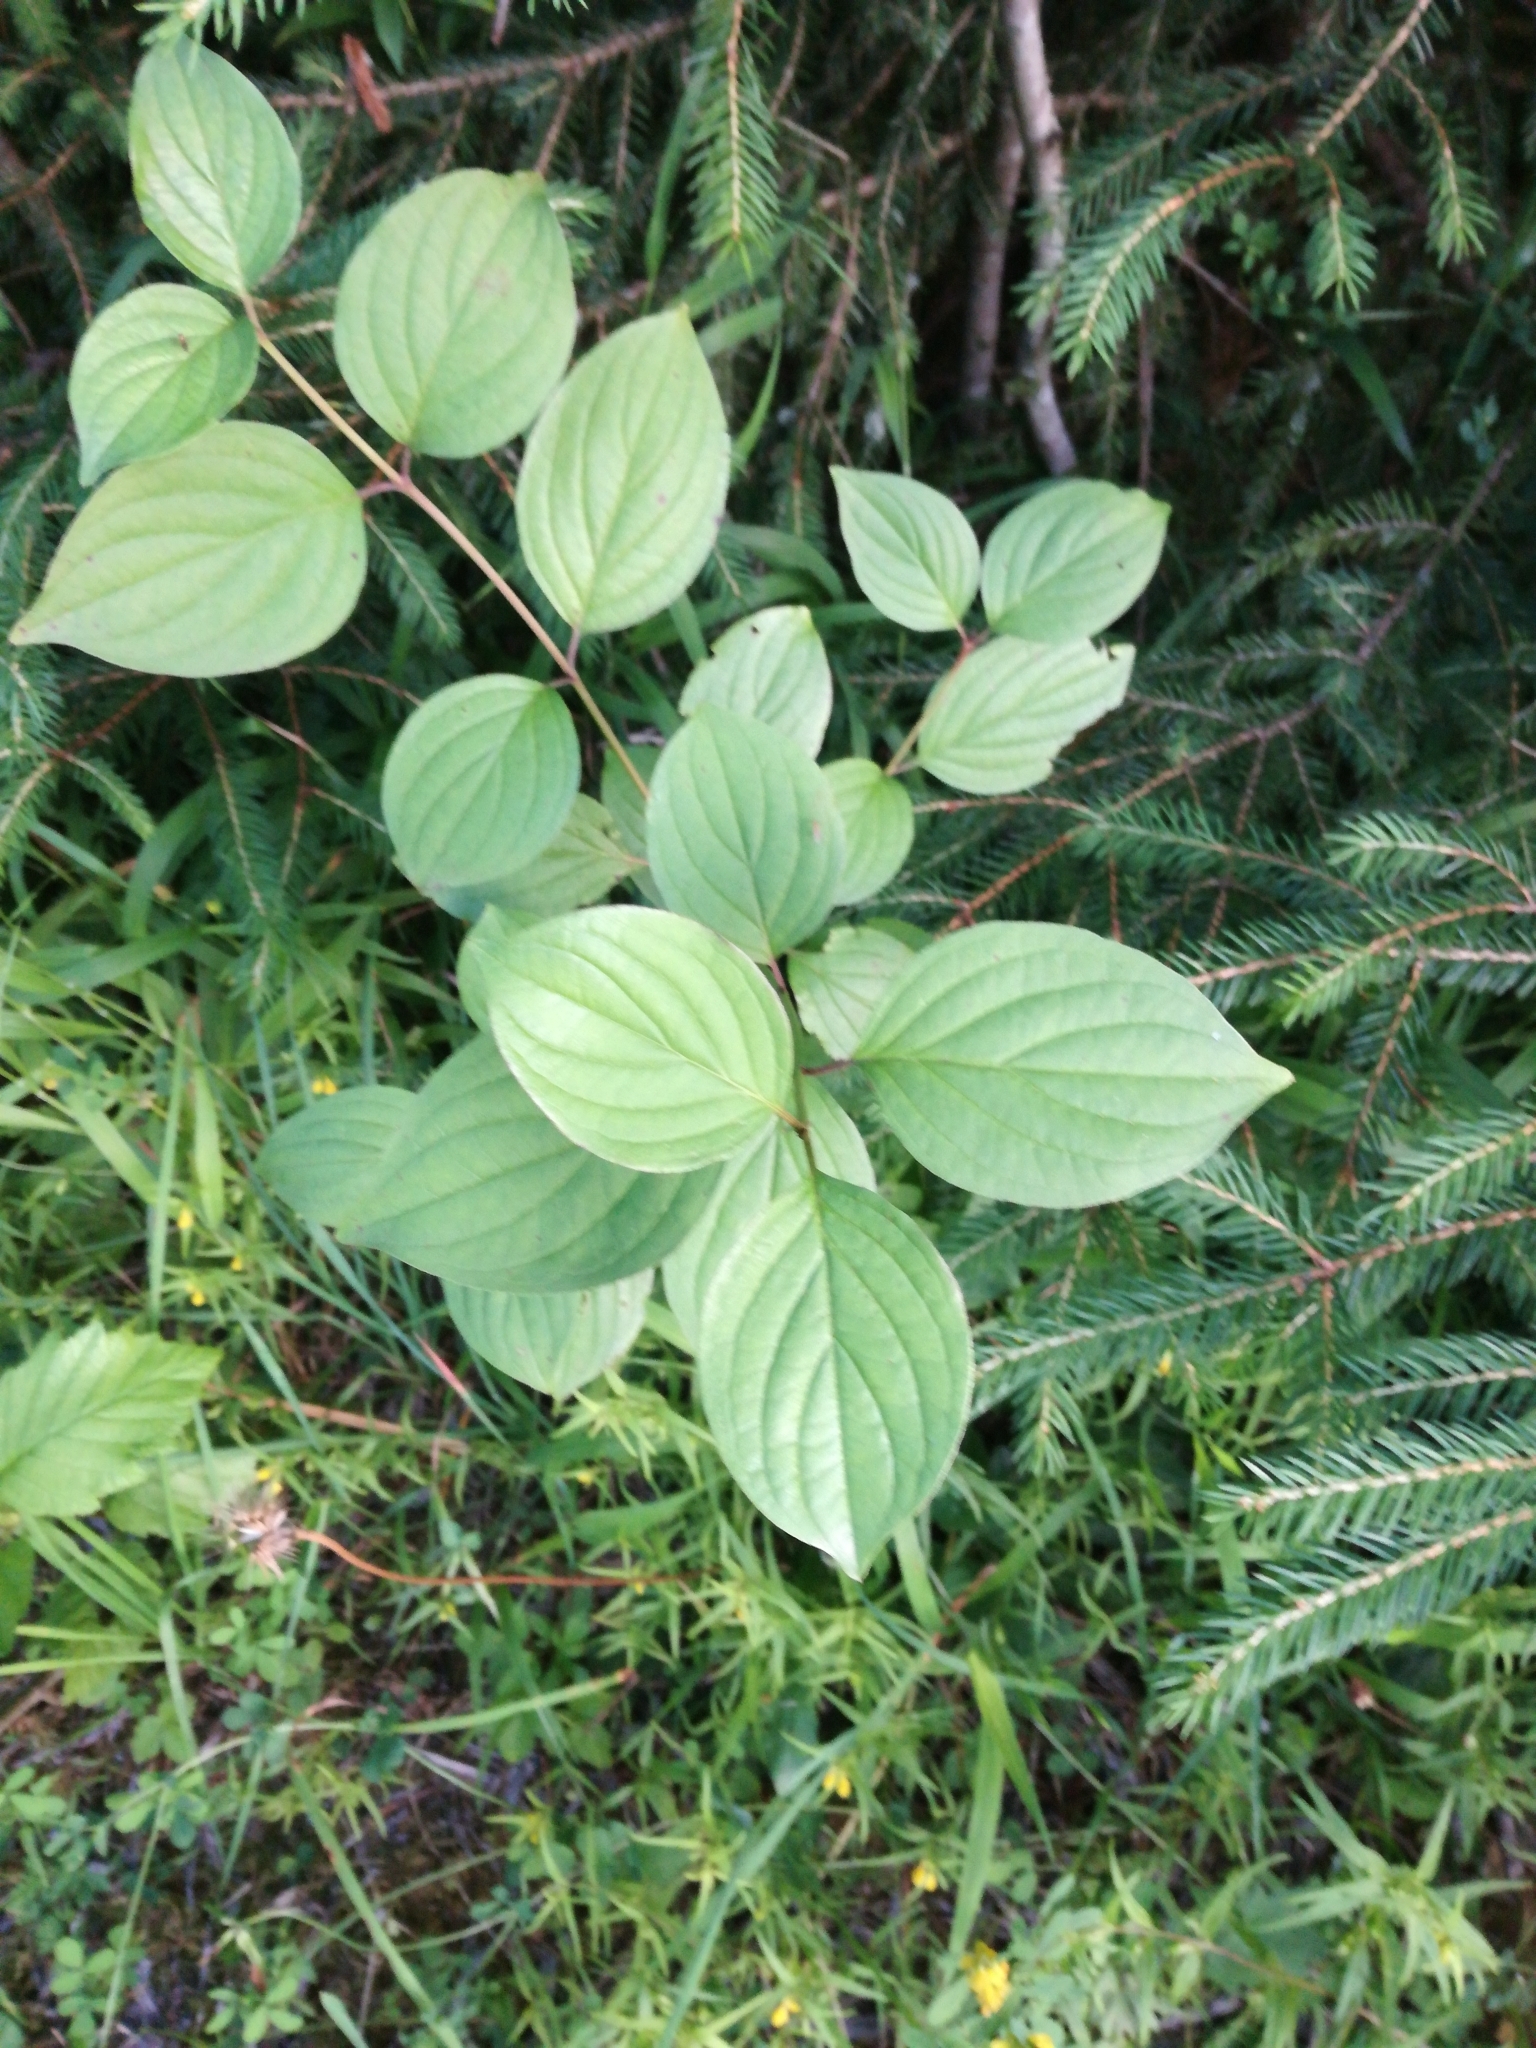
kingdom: Plantae
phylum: Tracheophyta
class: Magnoliopsida
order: Cornales
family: Cornaceae
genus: Cornus
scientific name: Cornus sanguinea
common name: Dogwood
